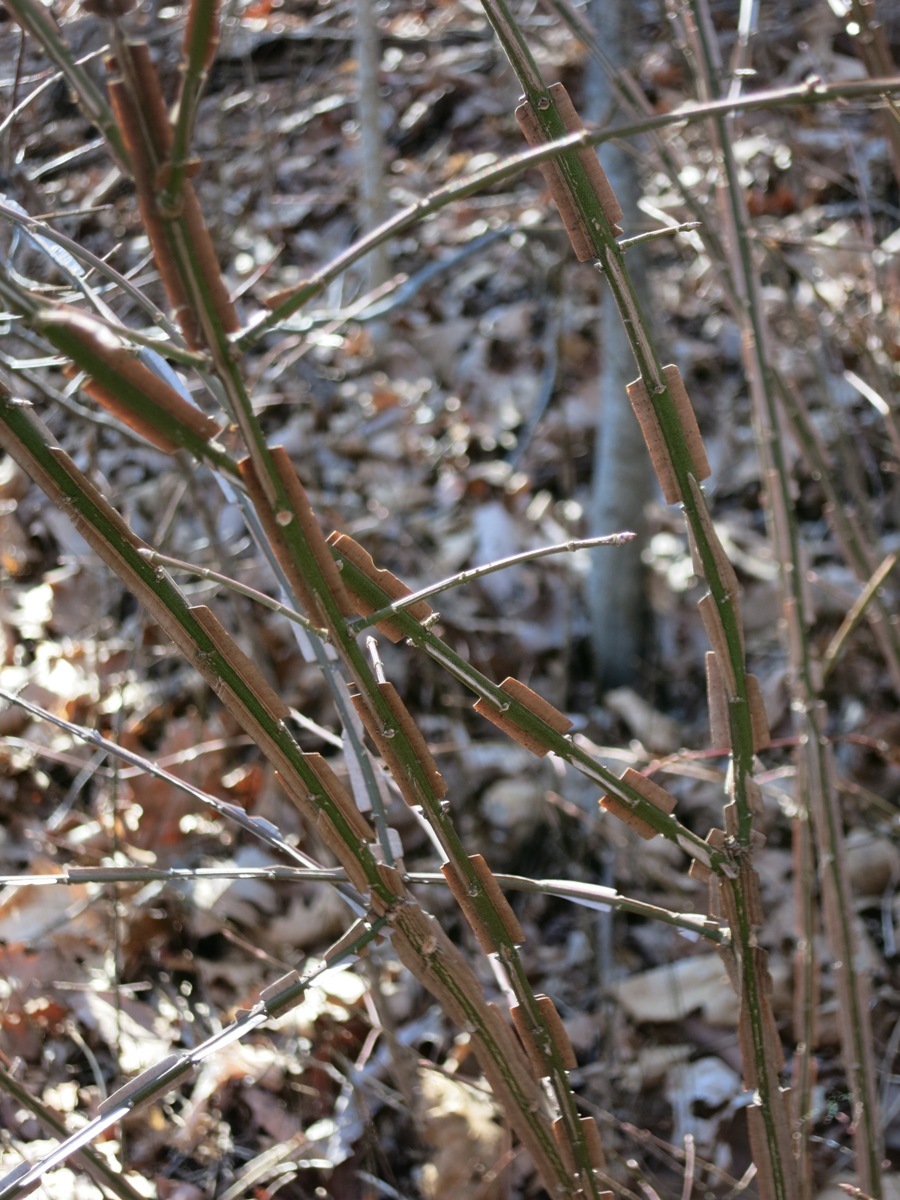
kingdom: Plantae
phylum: Tracheophyta
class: Magnoliopsida
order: Celastrales
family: Celastraceae
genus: Euonymus
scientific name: Euonymus alatus
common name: Winged euonymus
